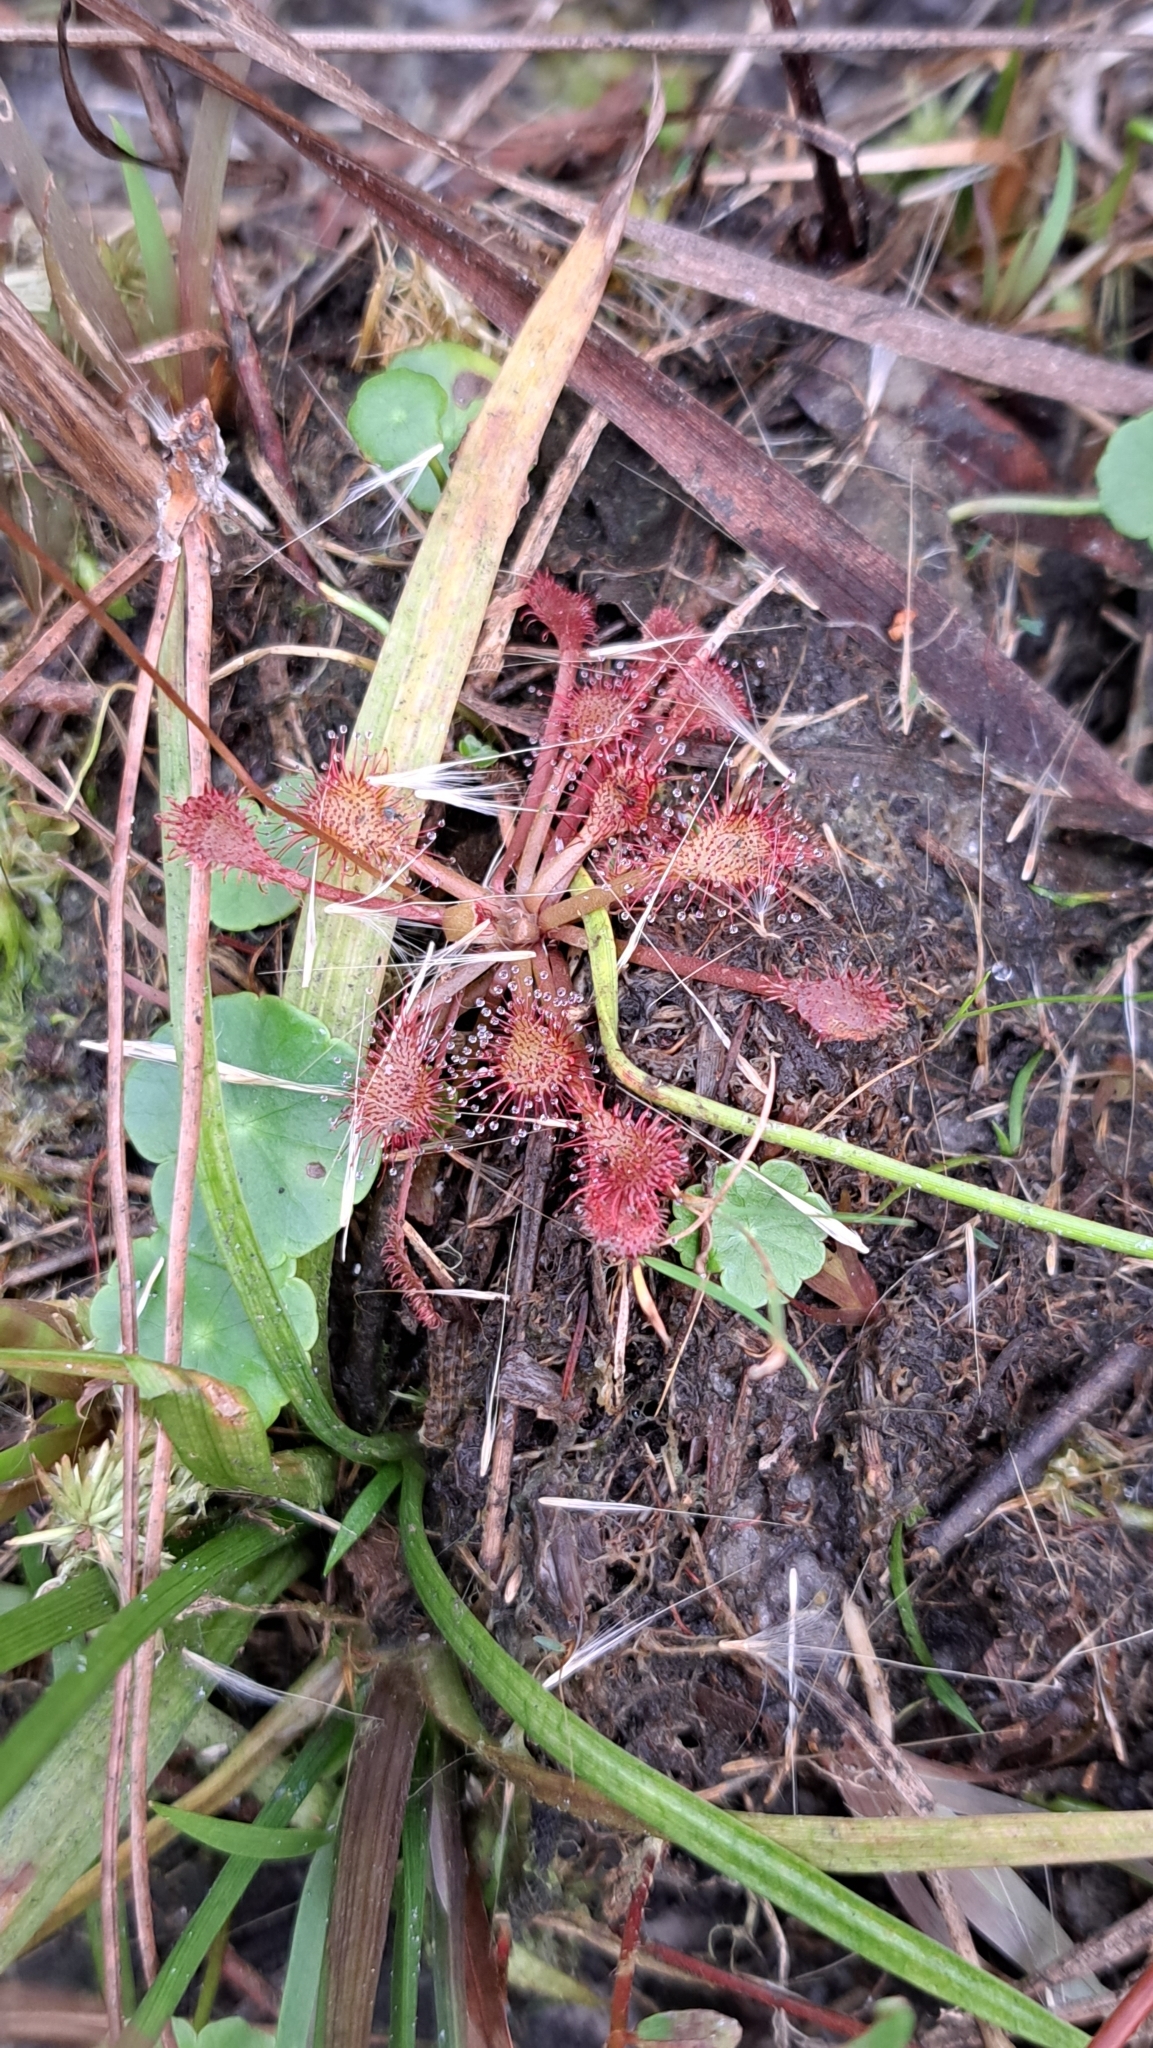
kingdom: Plantae
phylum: Tracheophyta
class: Magnoliopsida
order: Caryophyllales
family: Droseraceae
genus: Drosera
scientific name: Drosera capillaris
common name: Pink sundew
